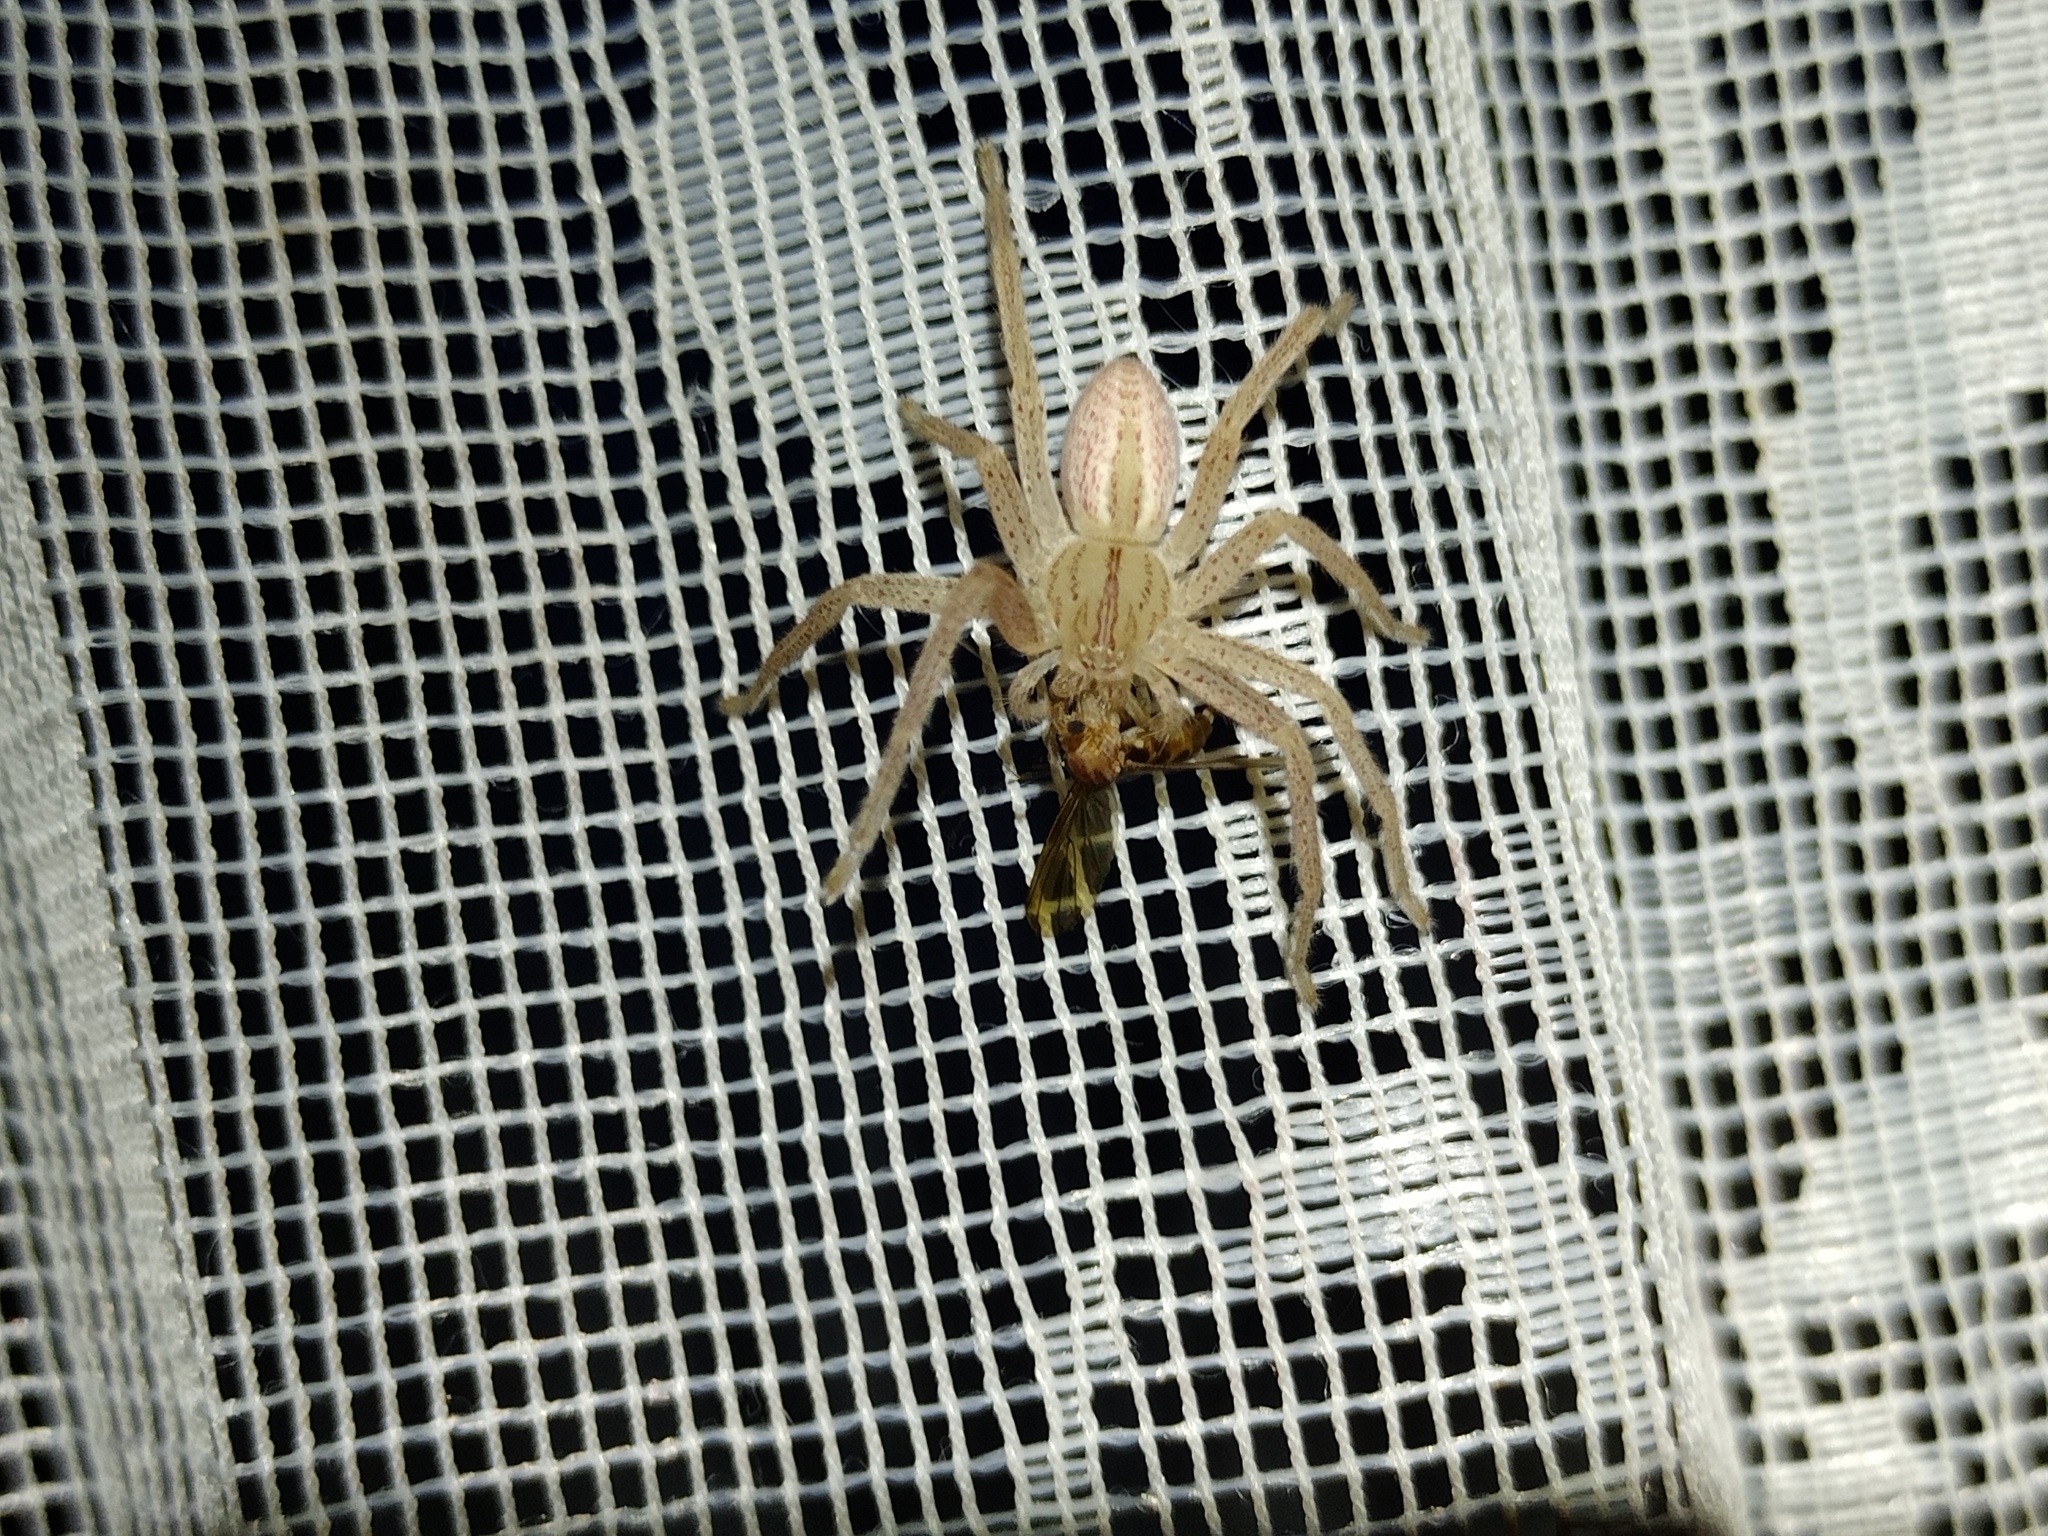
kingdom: Animalia
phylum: Arthropoda
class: Arachnida
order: Araneae
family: Sparassidae
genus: Micrommata
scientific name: Micrommata virescens
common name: Green spider
